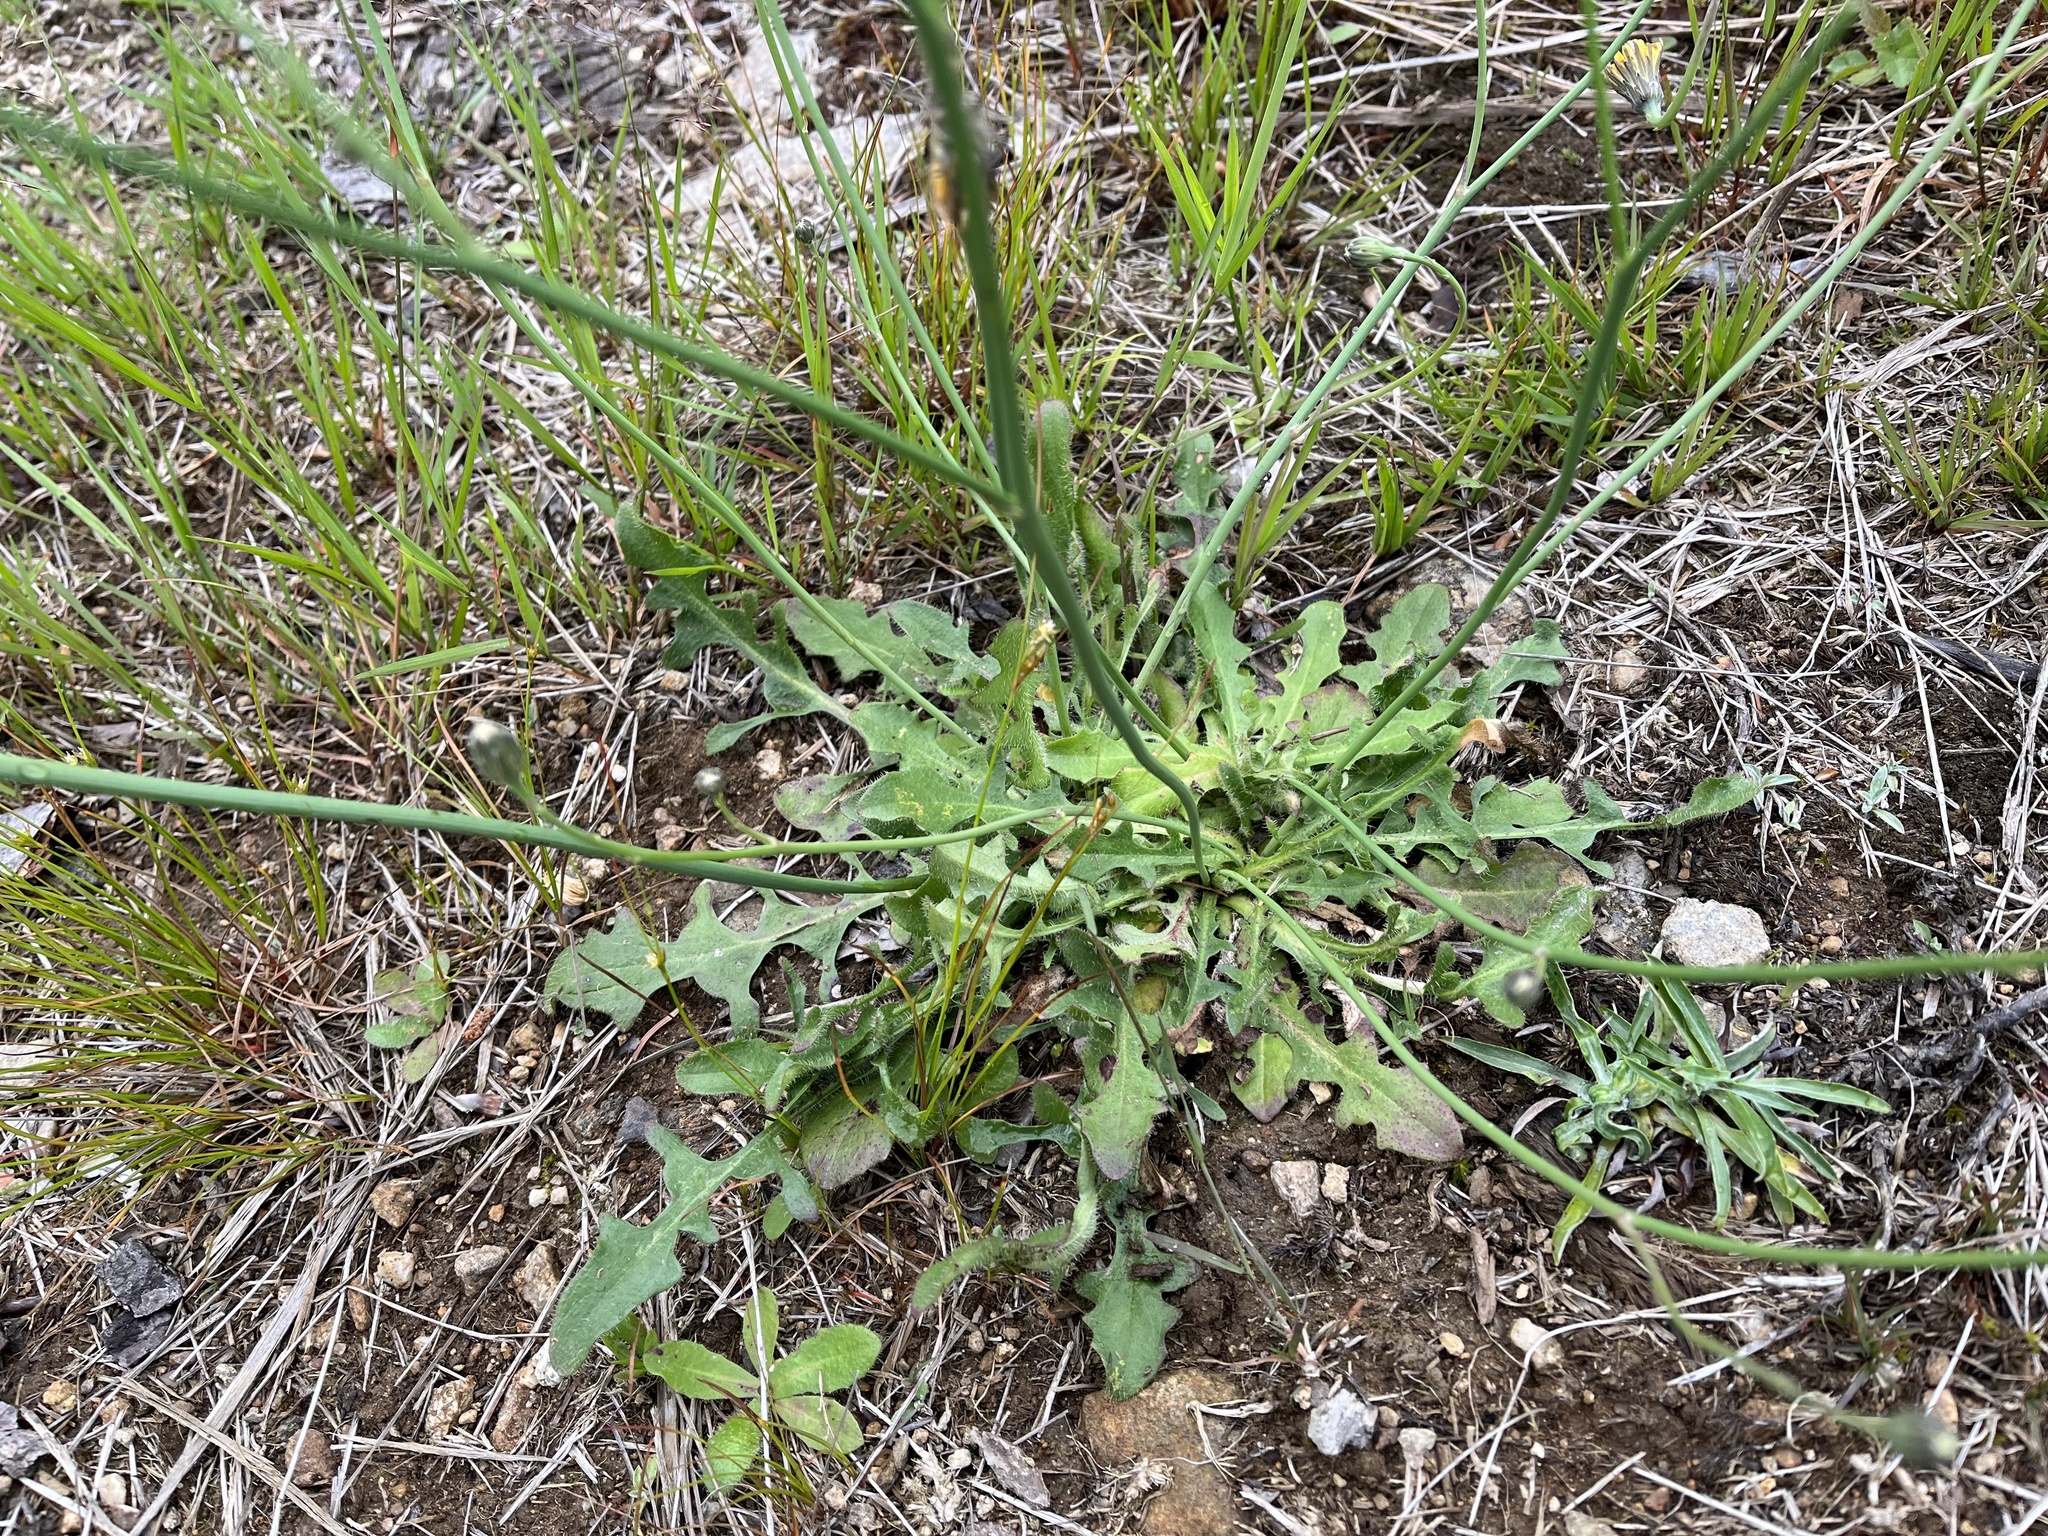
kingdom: Plantae
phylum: Tracheophyta
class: Magnoliopsida
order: Asterales
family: Asteraceae
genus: Hypochaeris
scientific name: Hypochaeris radicata
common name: Flatweed
